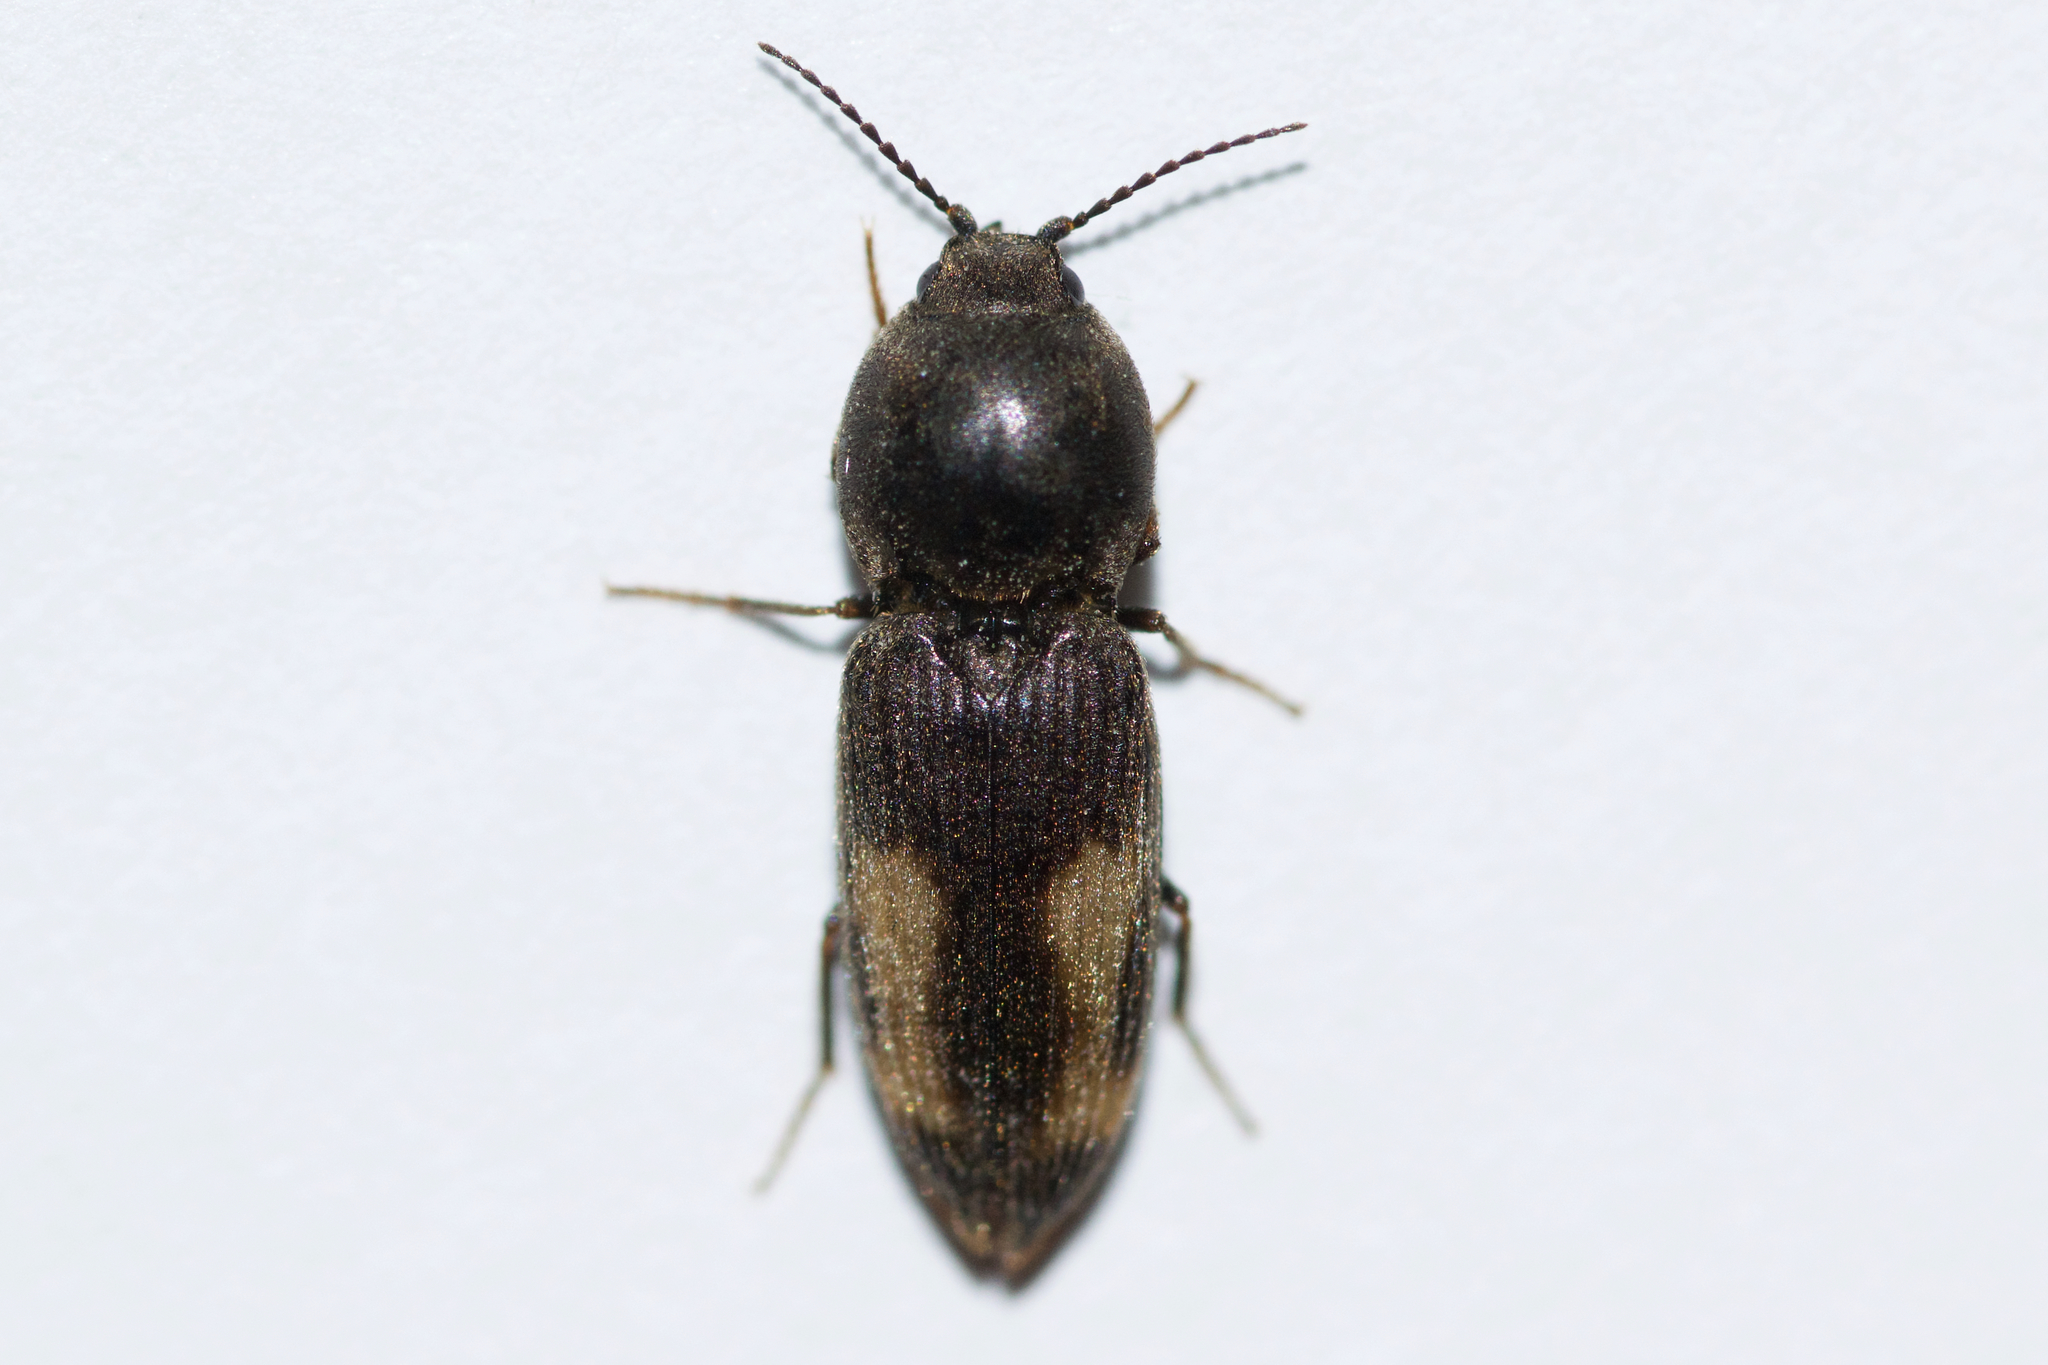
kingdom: Animalia
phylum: Arthropoda
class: Insecta
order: Coleoptera
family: Elateridae
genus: Paracardiophorus
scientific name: Paracardiophorus cardisce
